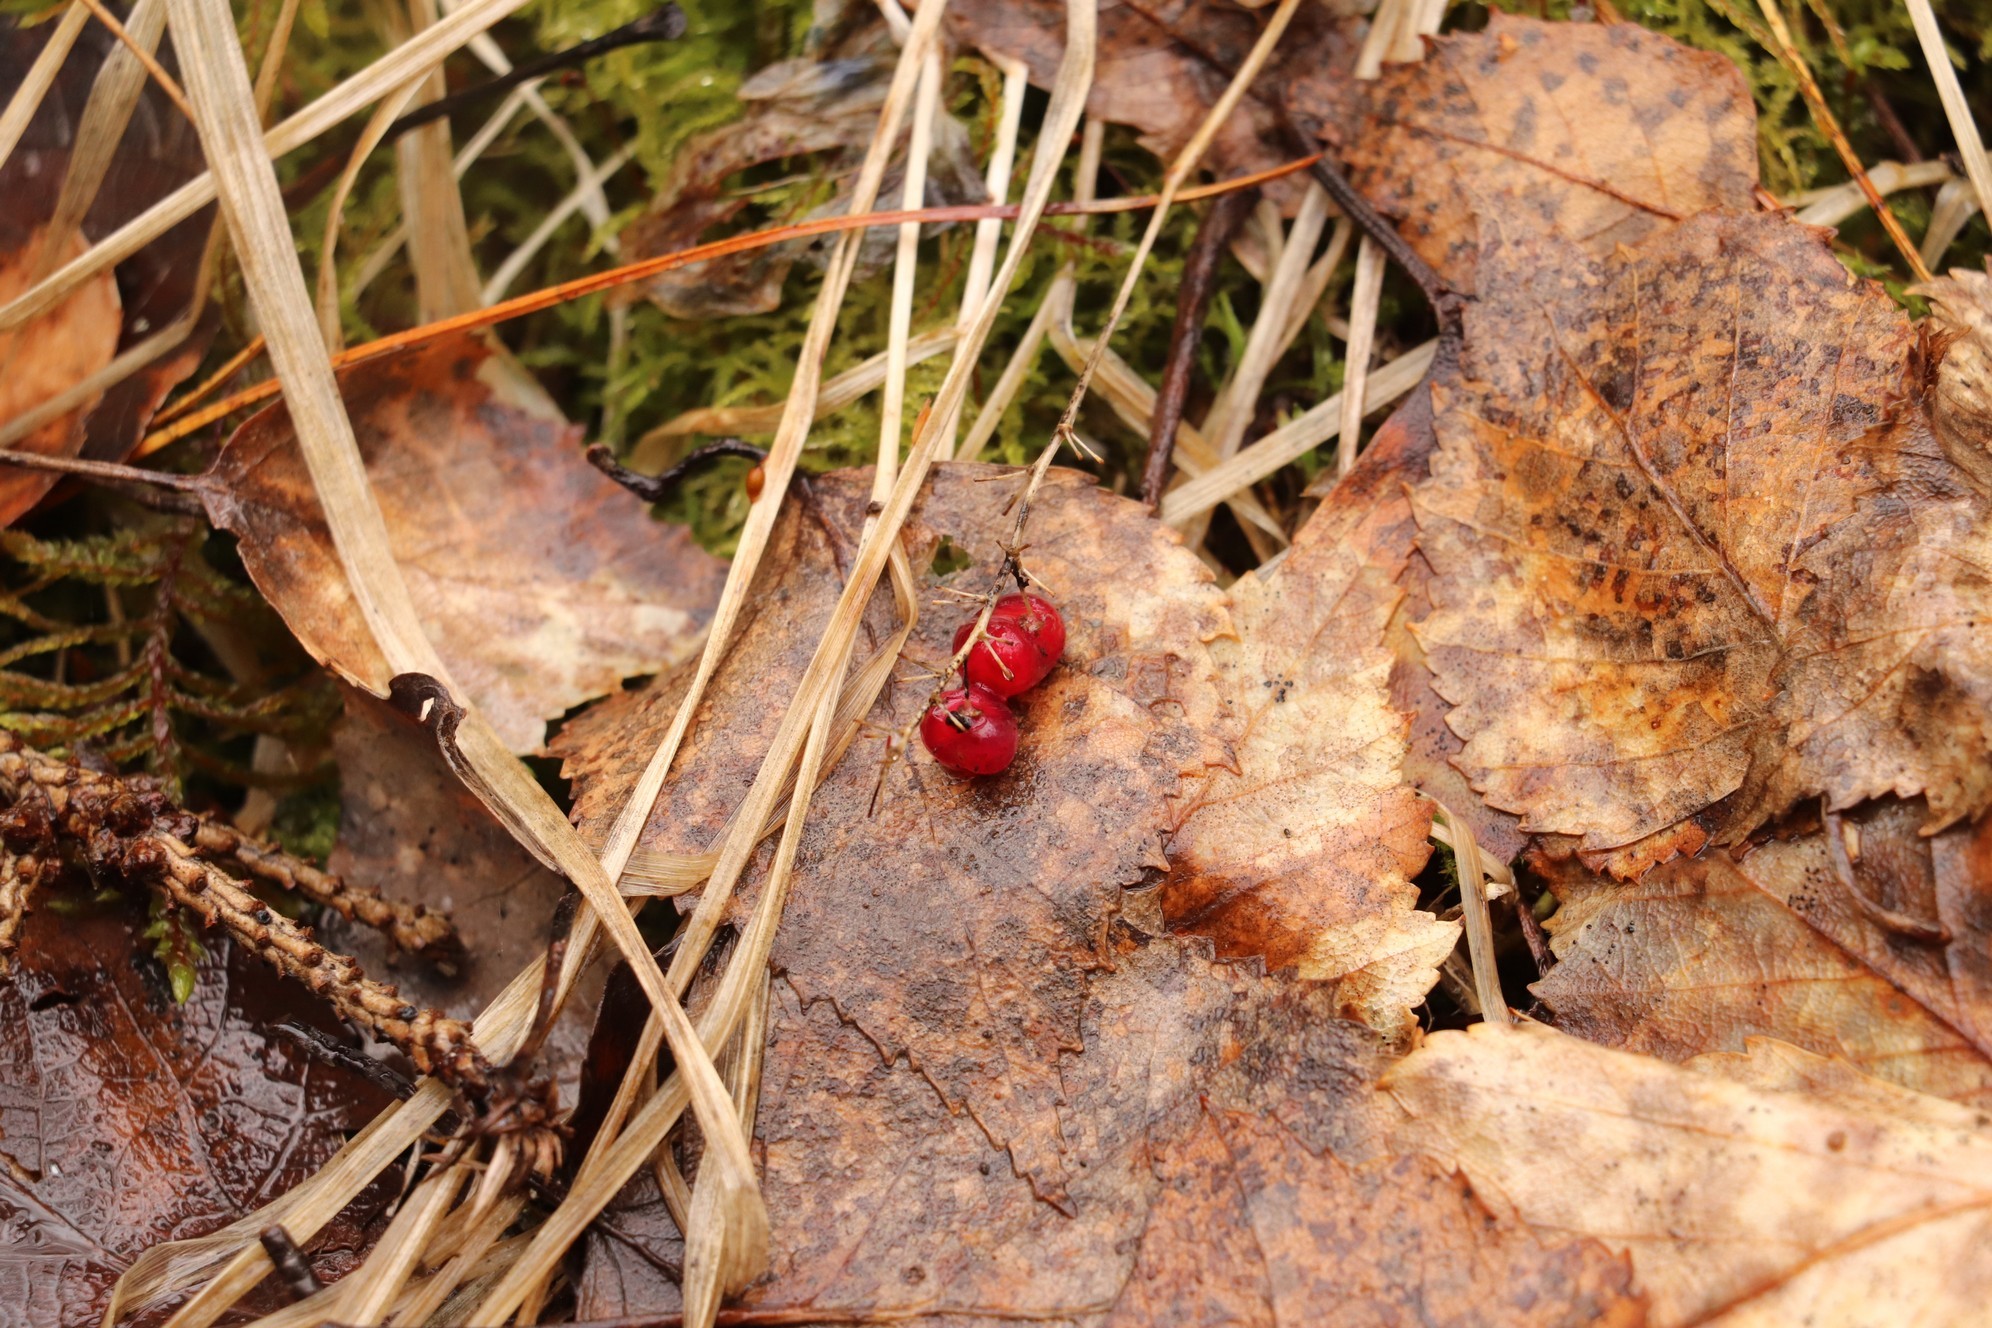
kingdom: Plantae
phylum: Tracheophyta
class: Liliopsida
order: Asparagales
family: Asparagaceae
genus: Maianthemum
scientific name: Maianthemum bifolium
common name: May lily
